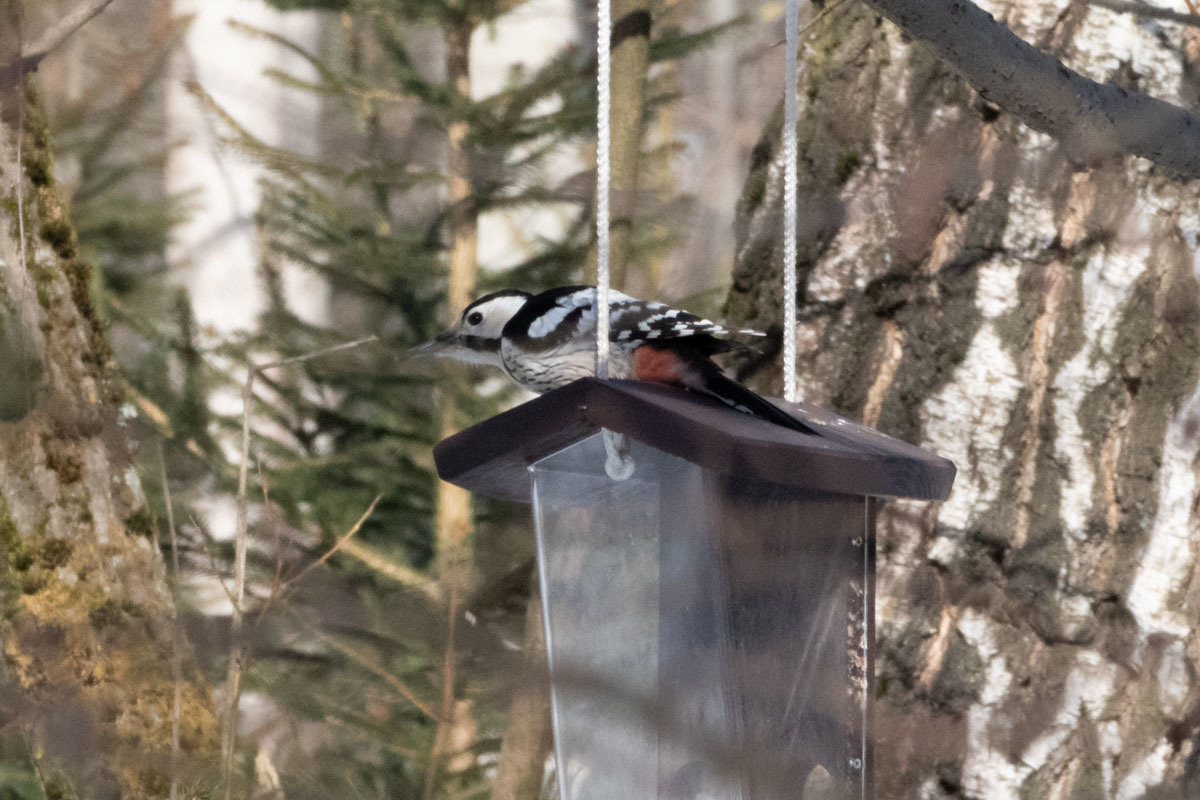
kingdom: Animalia
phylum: Chordata
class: Aves
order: Piciformes
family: Picidae
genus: Dendrocopos
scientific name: Dendrocopos leucotos
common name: White-backed woodpecker
